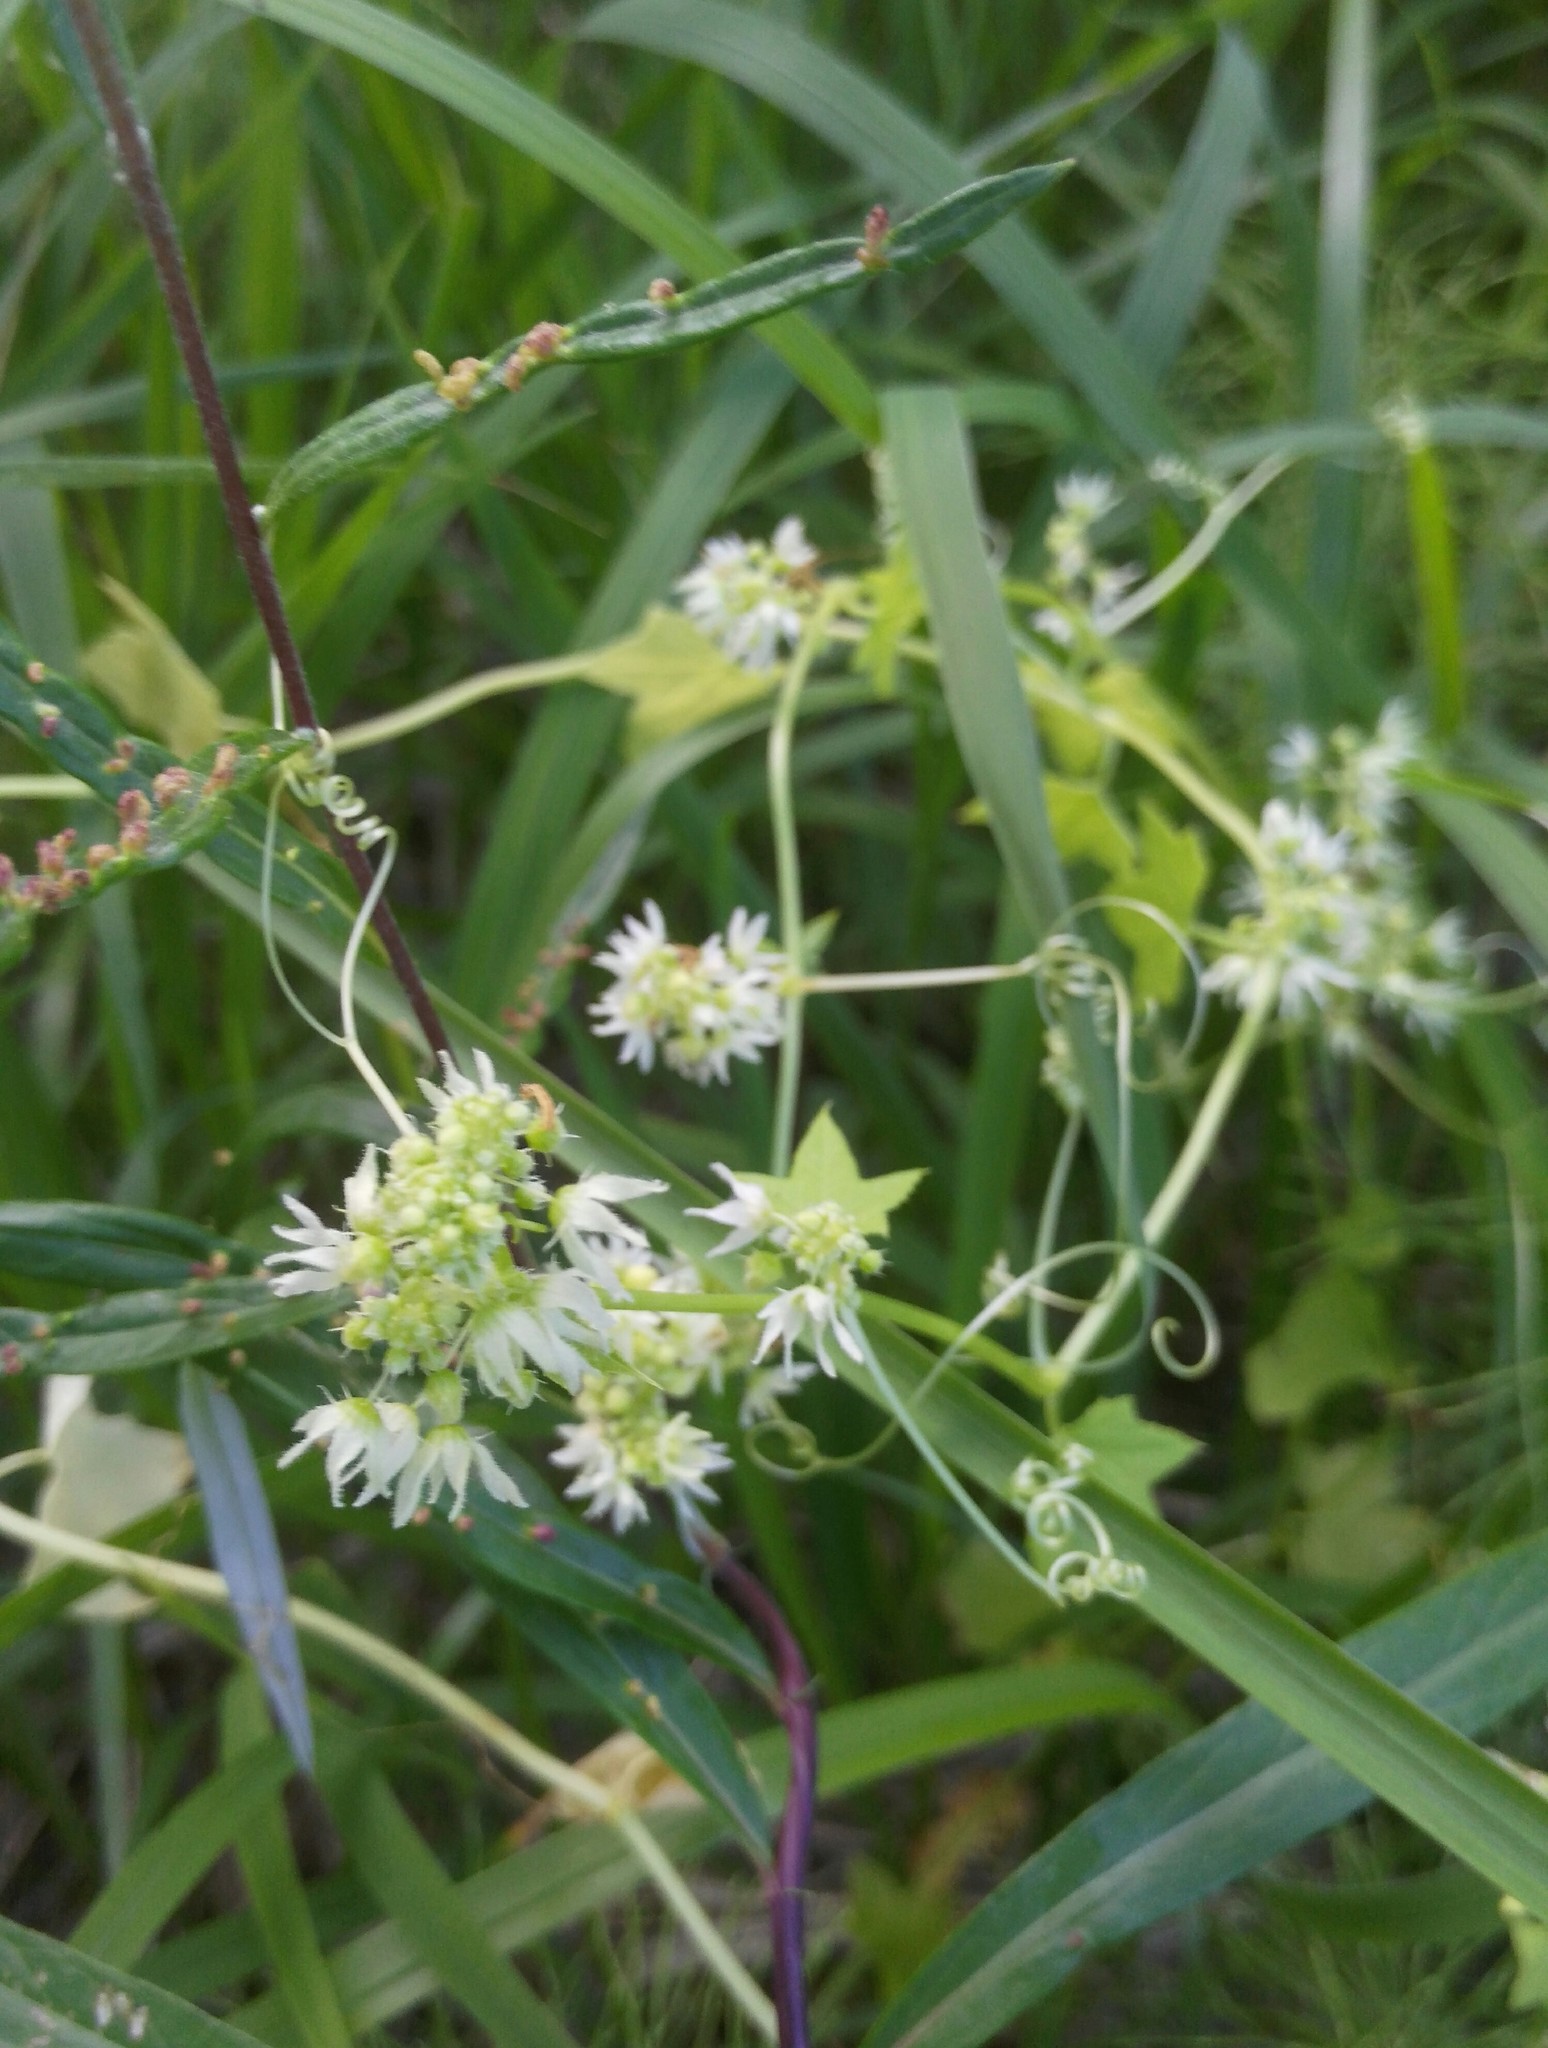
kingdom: Plantae
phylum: Tracheophyta
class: Magnoliopsida
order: Cucurbitales
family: Cucurbitaceae
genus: Echinocystis
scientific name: Echinocystis lobata
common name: Wild cucumber
